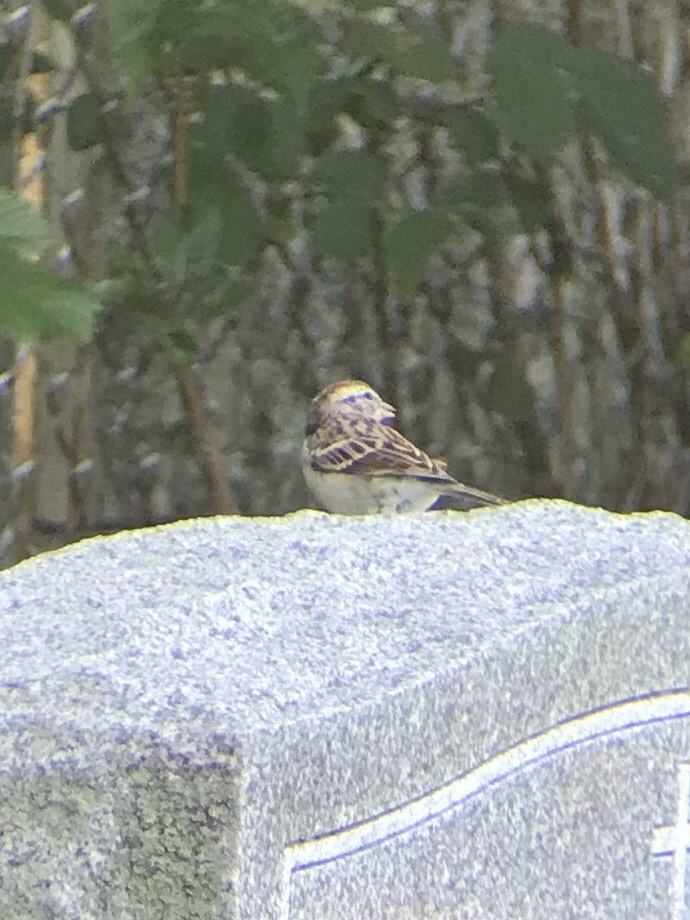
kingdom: Animalia
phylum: Chordata
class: Aves
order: Passeriformes
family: Passerellidae
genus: Spizella
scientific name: Spizella passerina
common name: Chipping sparrow
